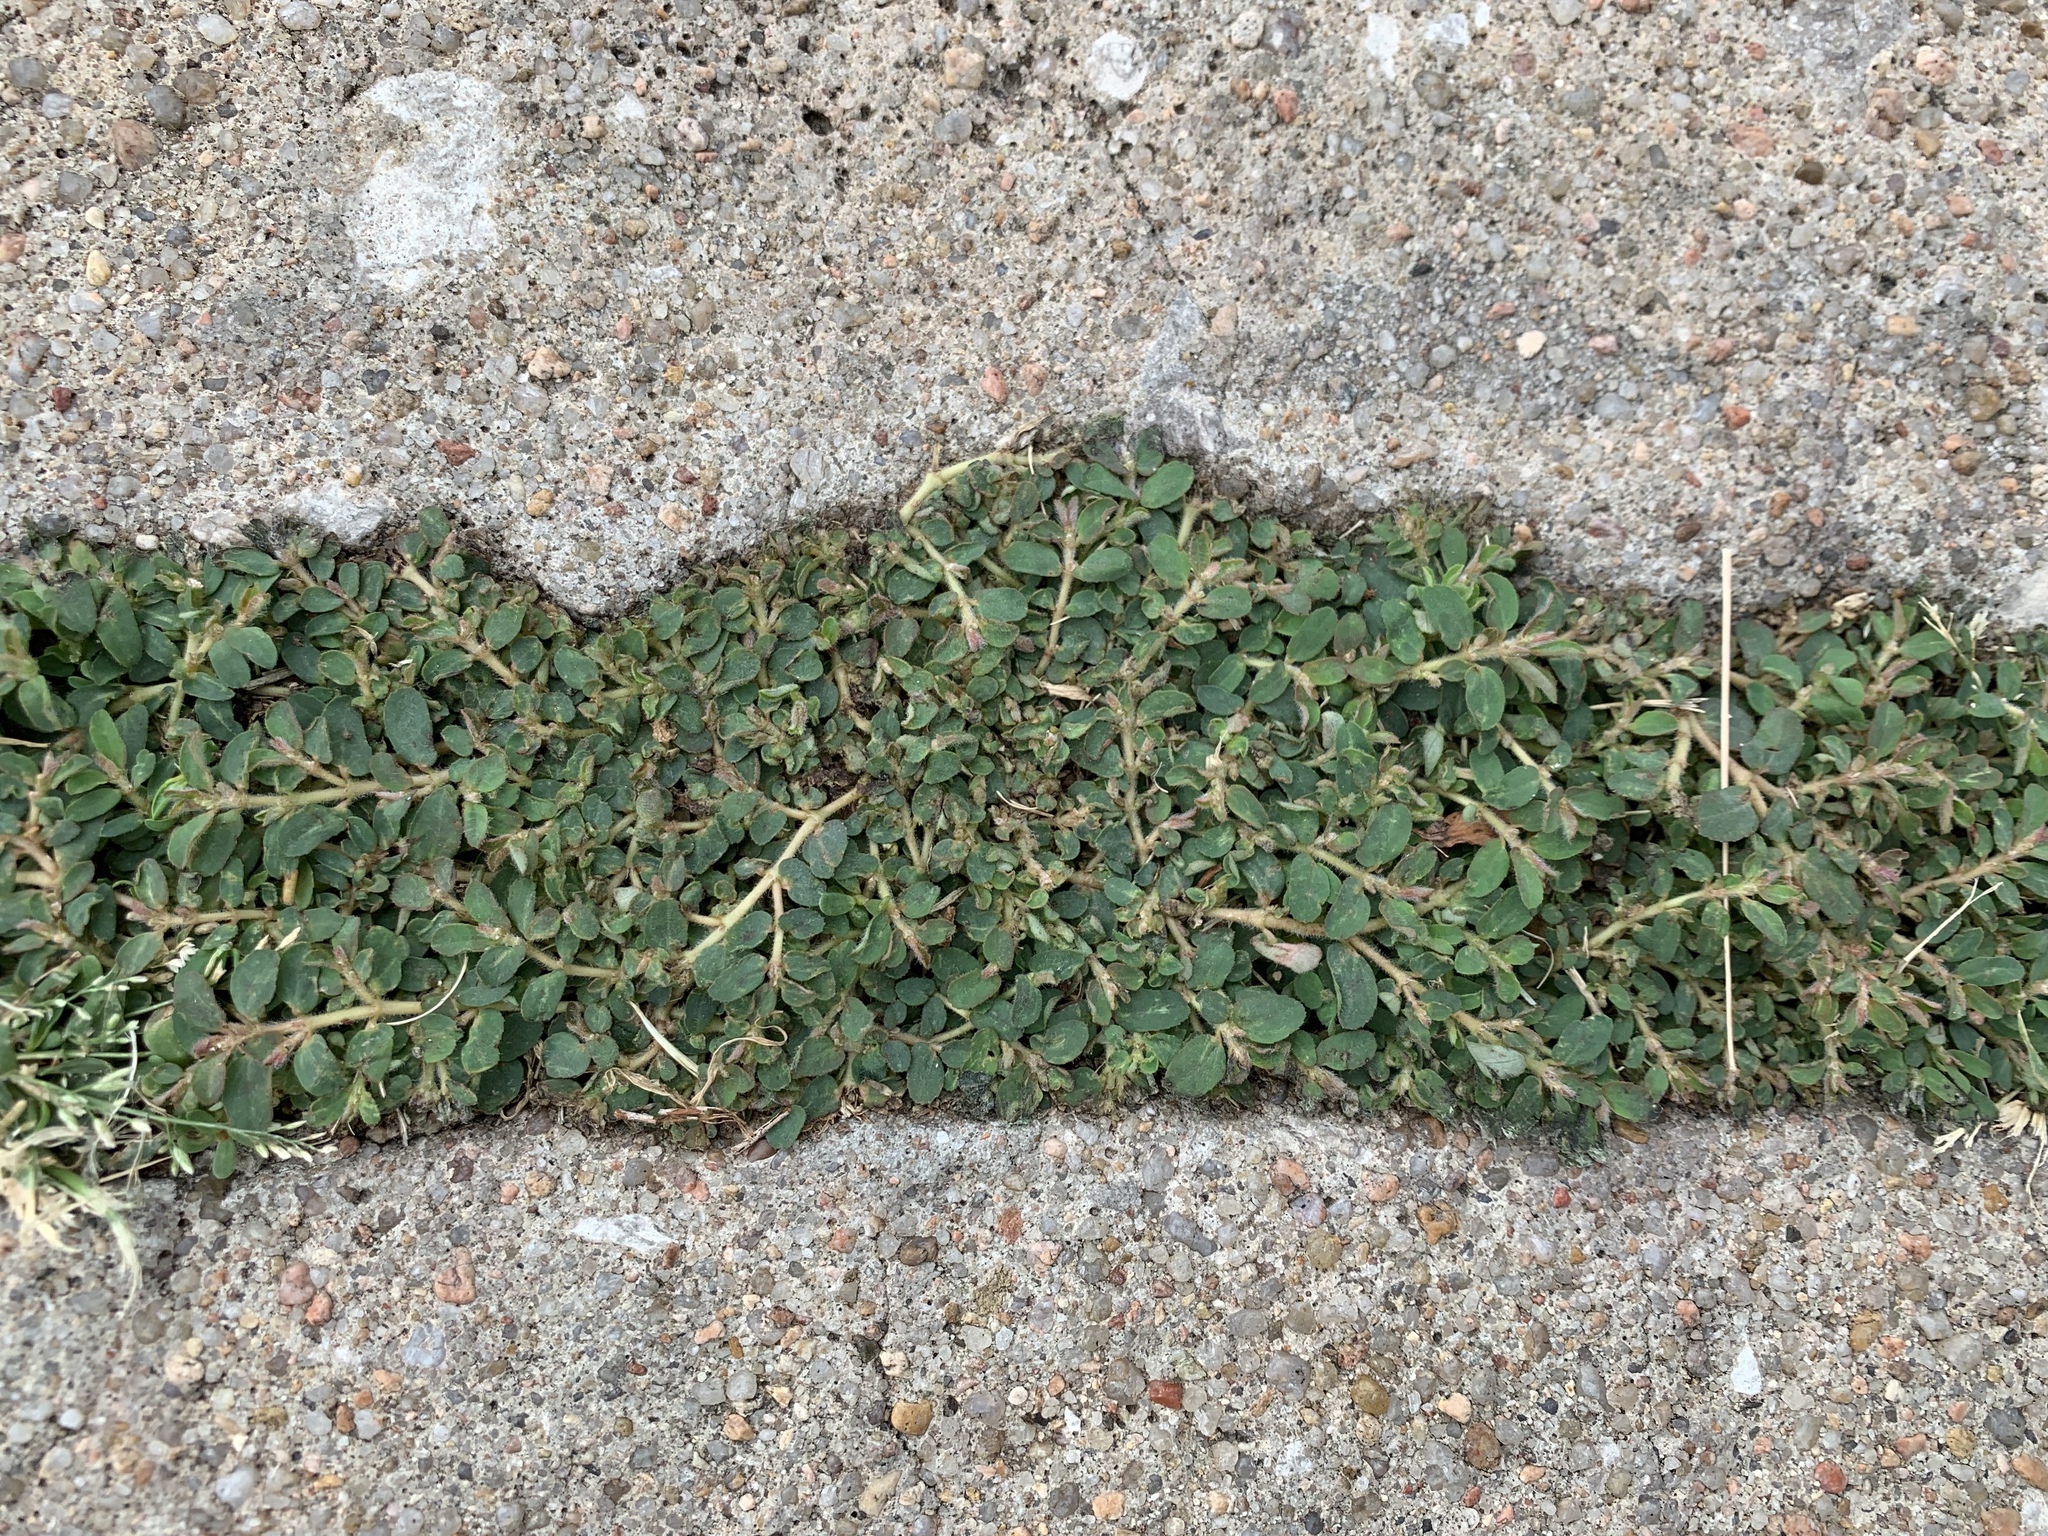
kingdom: Plantae
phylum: Tracheophyta
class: Magnoliopsida
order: Malpighiales
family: Euphorbiaceae
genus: Euphorbia
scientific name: Euphorbia maculata
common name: Spotted spurge
